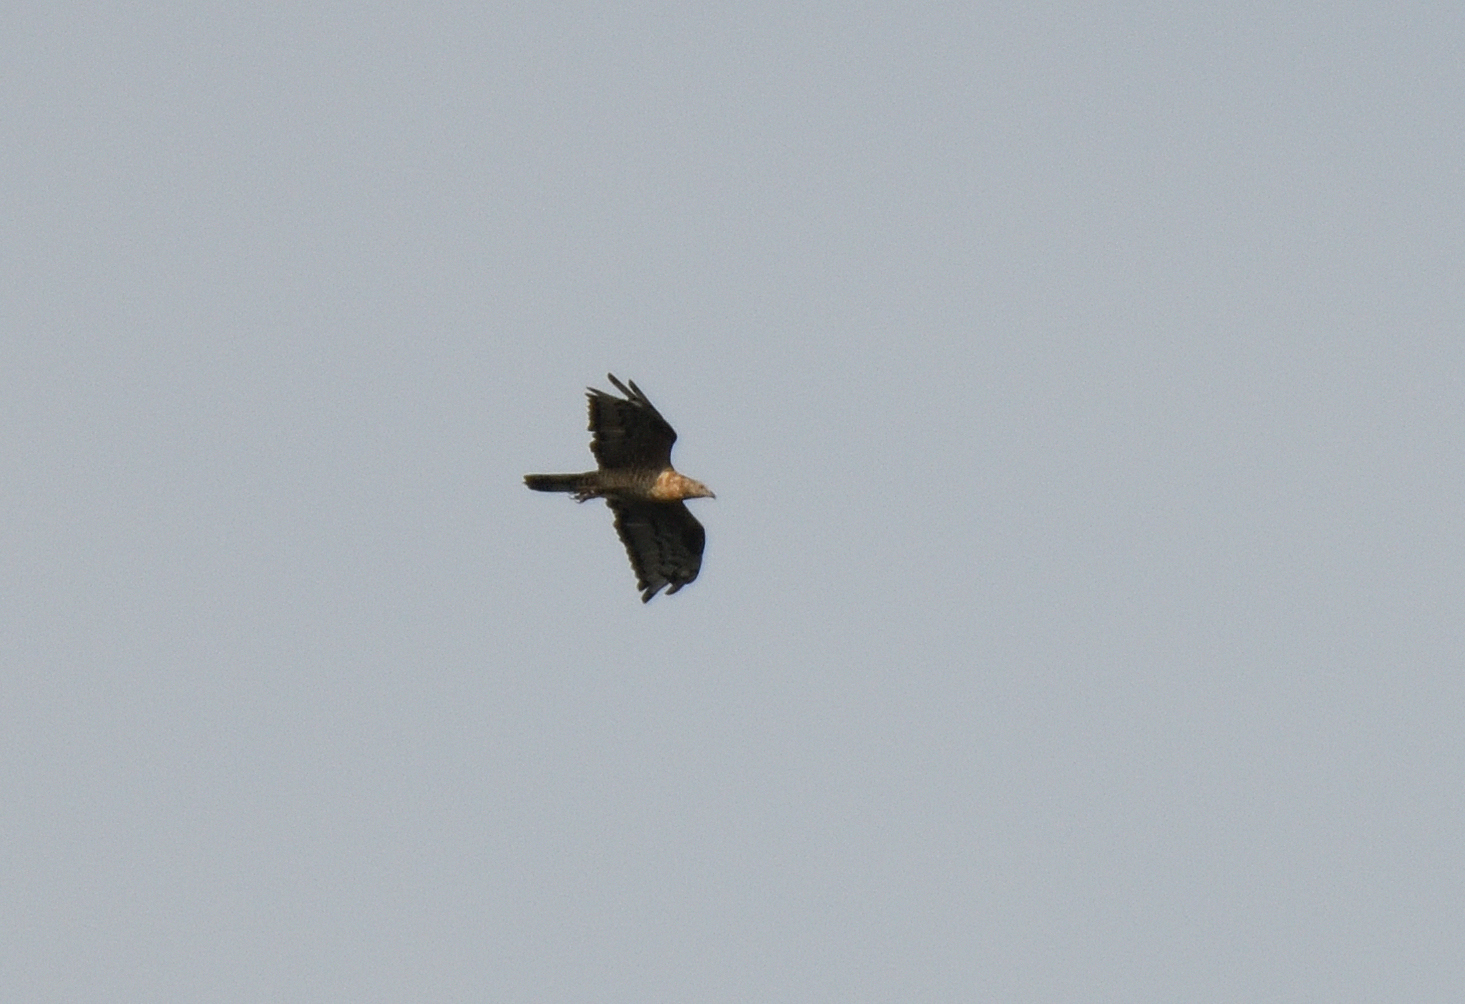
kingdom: Animalia
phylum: Chordata
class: Aves
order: Accipitriformes
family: Accipitridae
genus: Pernis
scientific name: Pernis ptilorhynchus
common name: Crested honey buzzard
